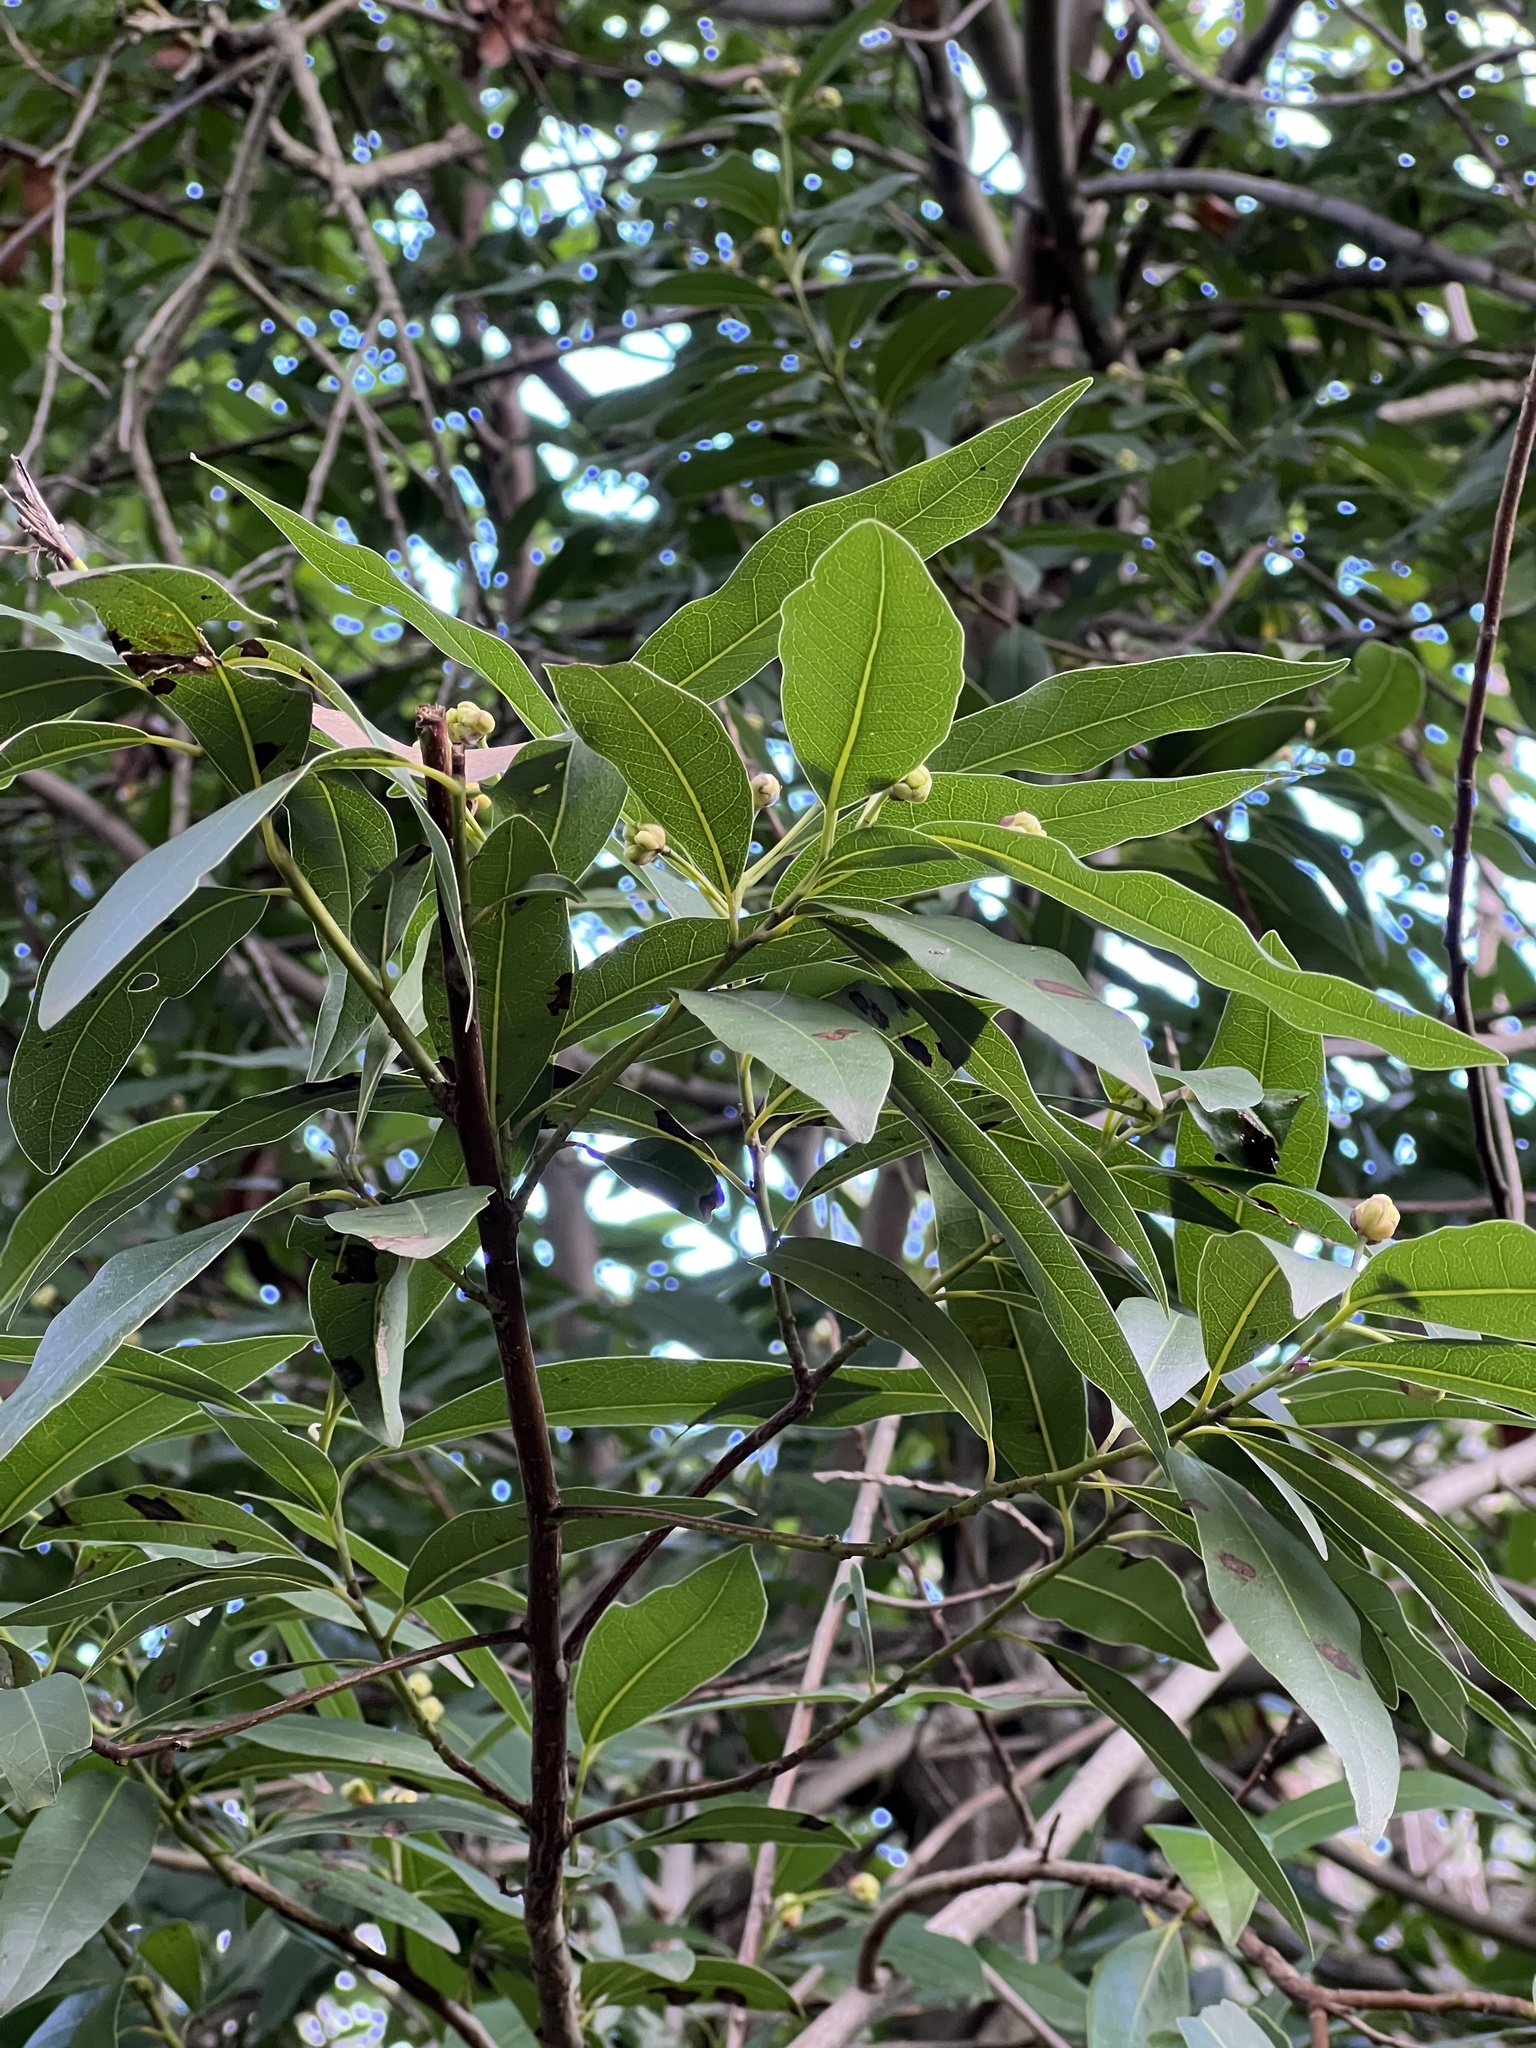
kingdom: Plantae
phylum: Tracheophyta
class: Magnoliopsida
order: Laurales
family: Lauraceae
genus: Umbellularia
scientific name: Umbellularia californica
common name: California bay
